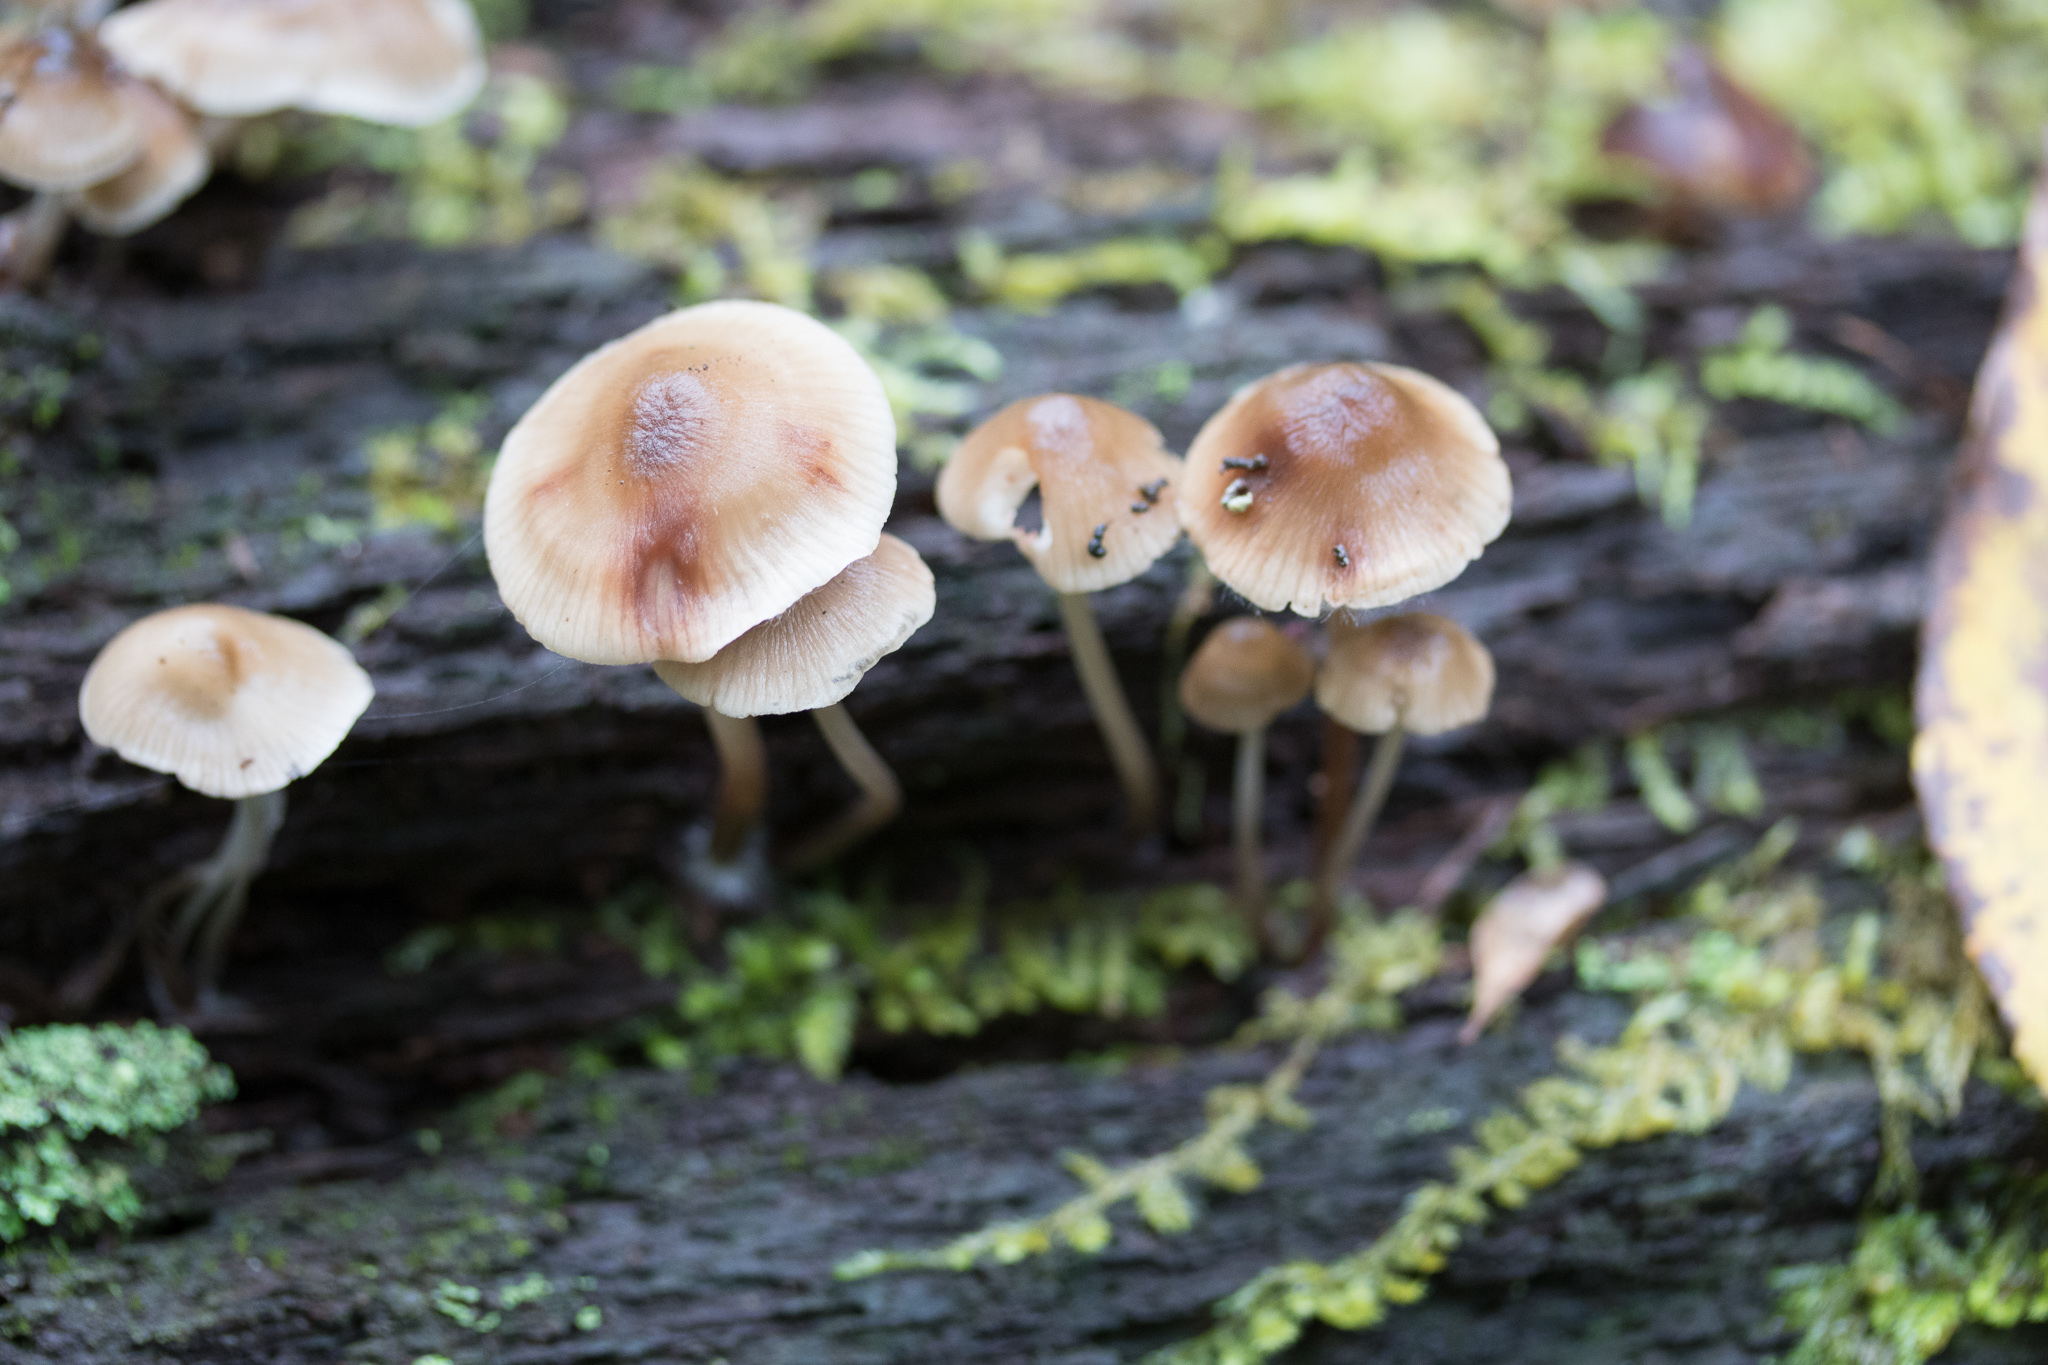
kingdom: Fungi
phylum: Basidiomycota
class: Agaricomycetes
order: Agaricales
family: Mycenaceae
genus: Mycena
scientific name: Mycena inclinata
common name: Clustered bonnet
